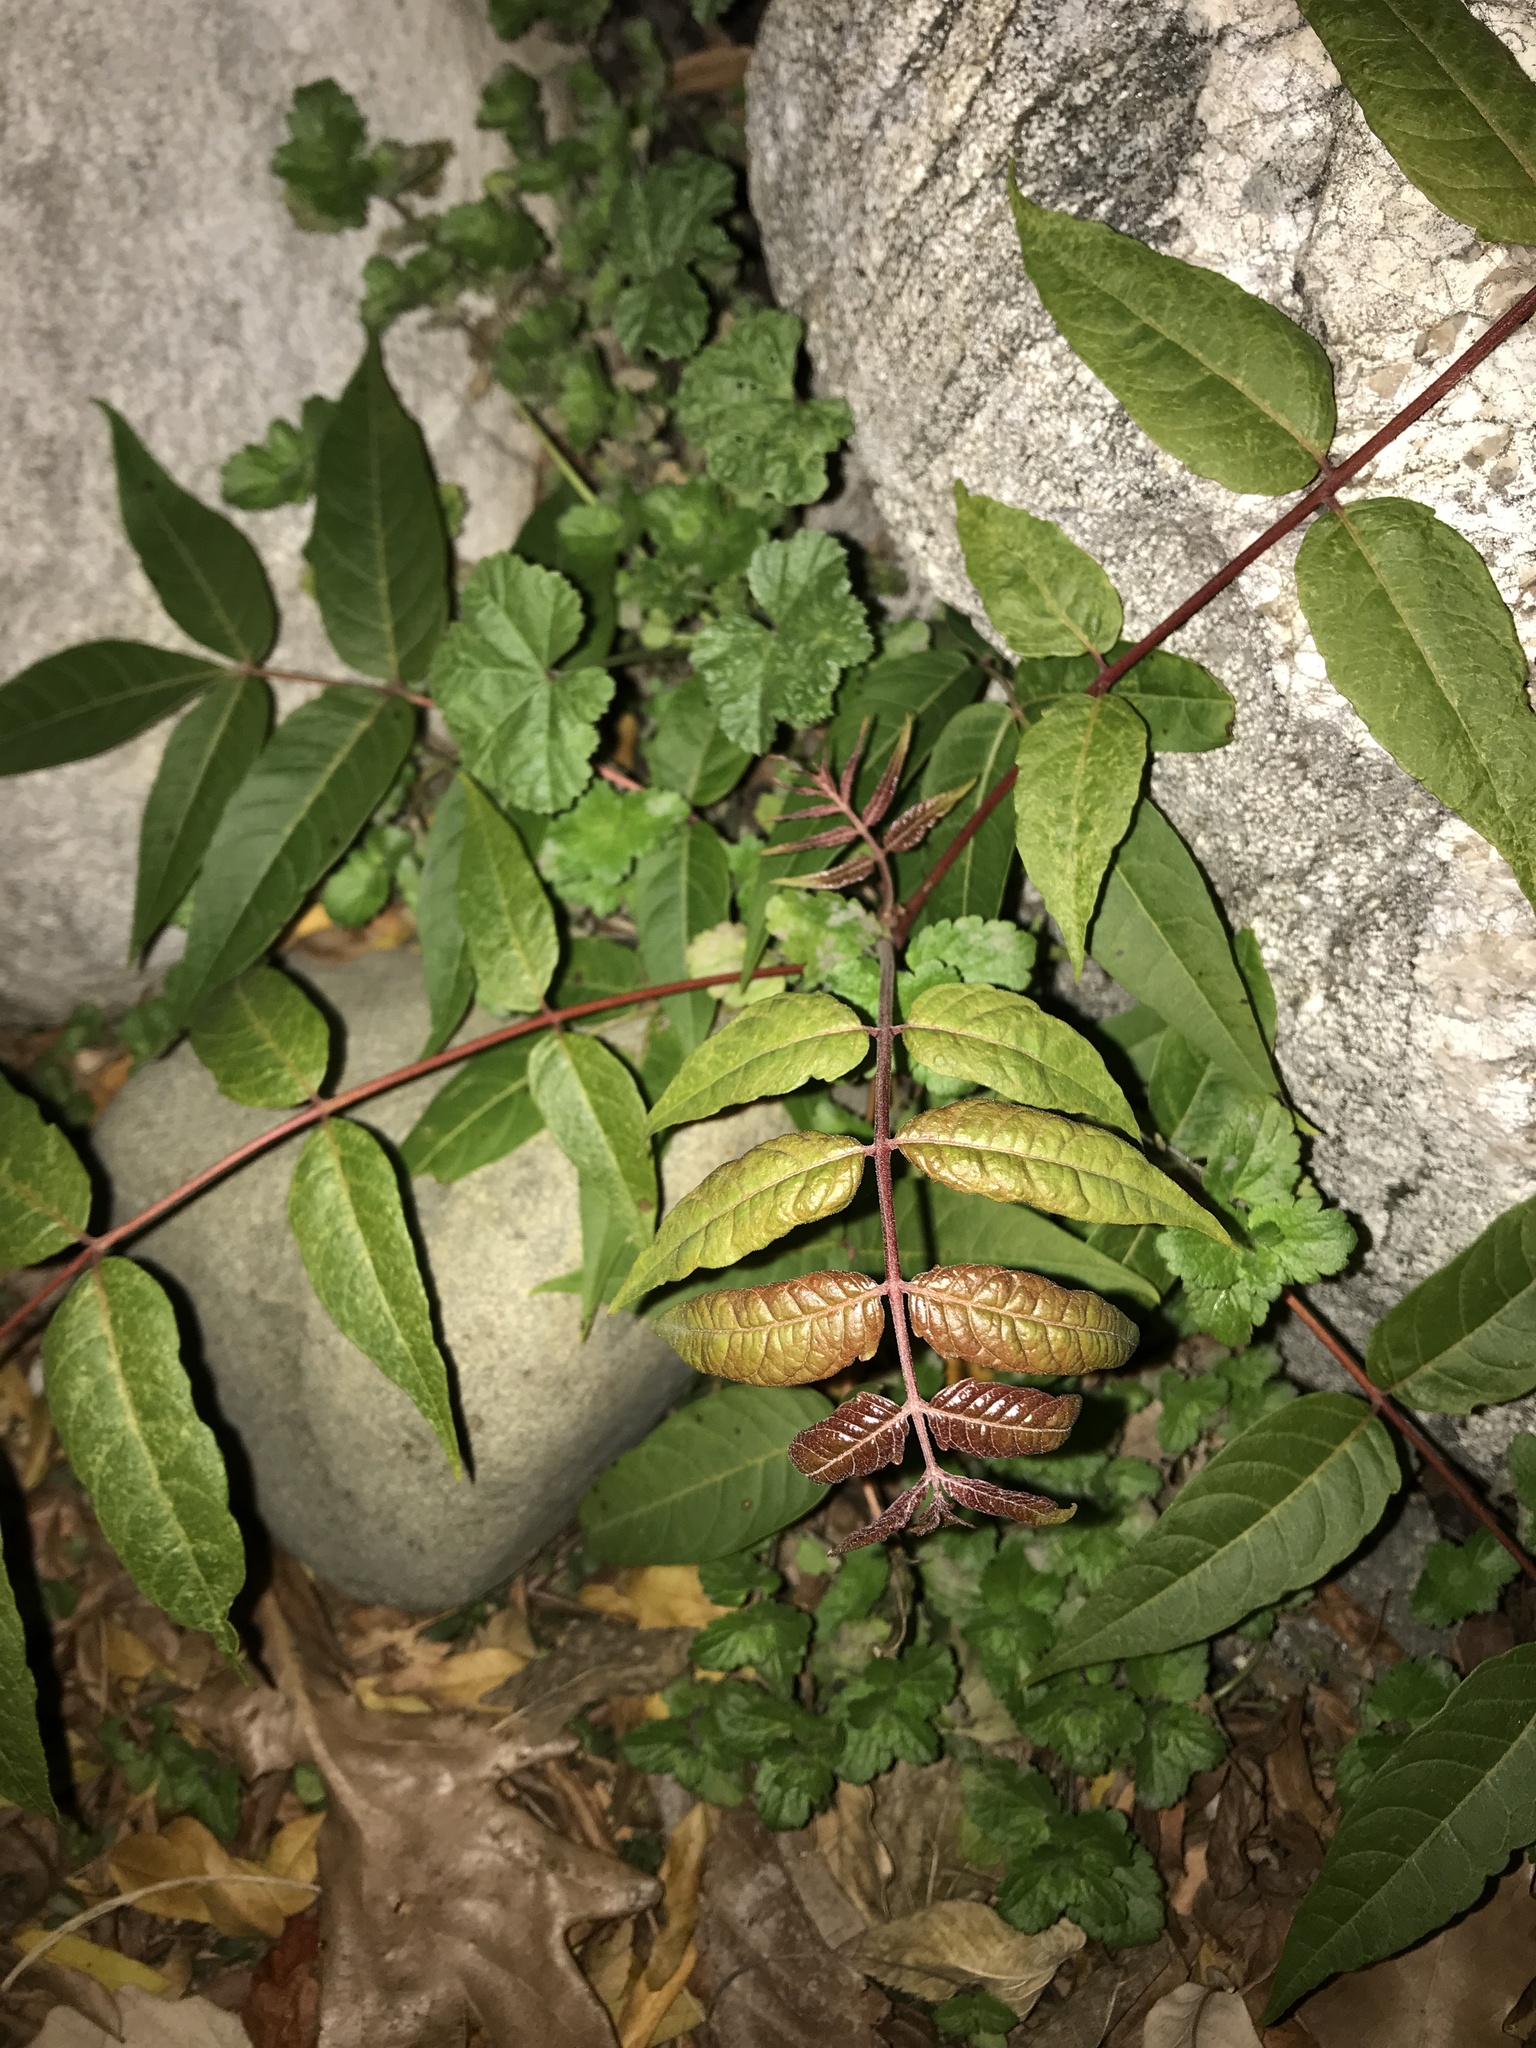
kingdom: Plantae
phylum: Tracheophyta
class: Magnoliopsida
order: Sapindales
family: Simaroubaceae
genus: Ailanthus
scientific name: Ailanthus altissima
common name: Tree-of-heaven
